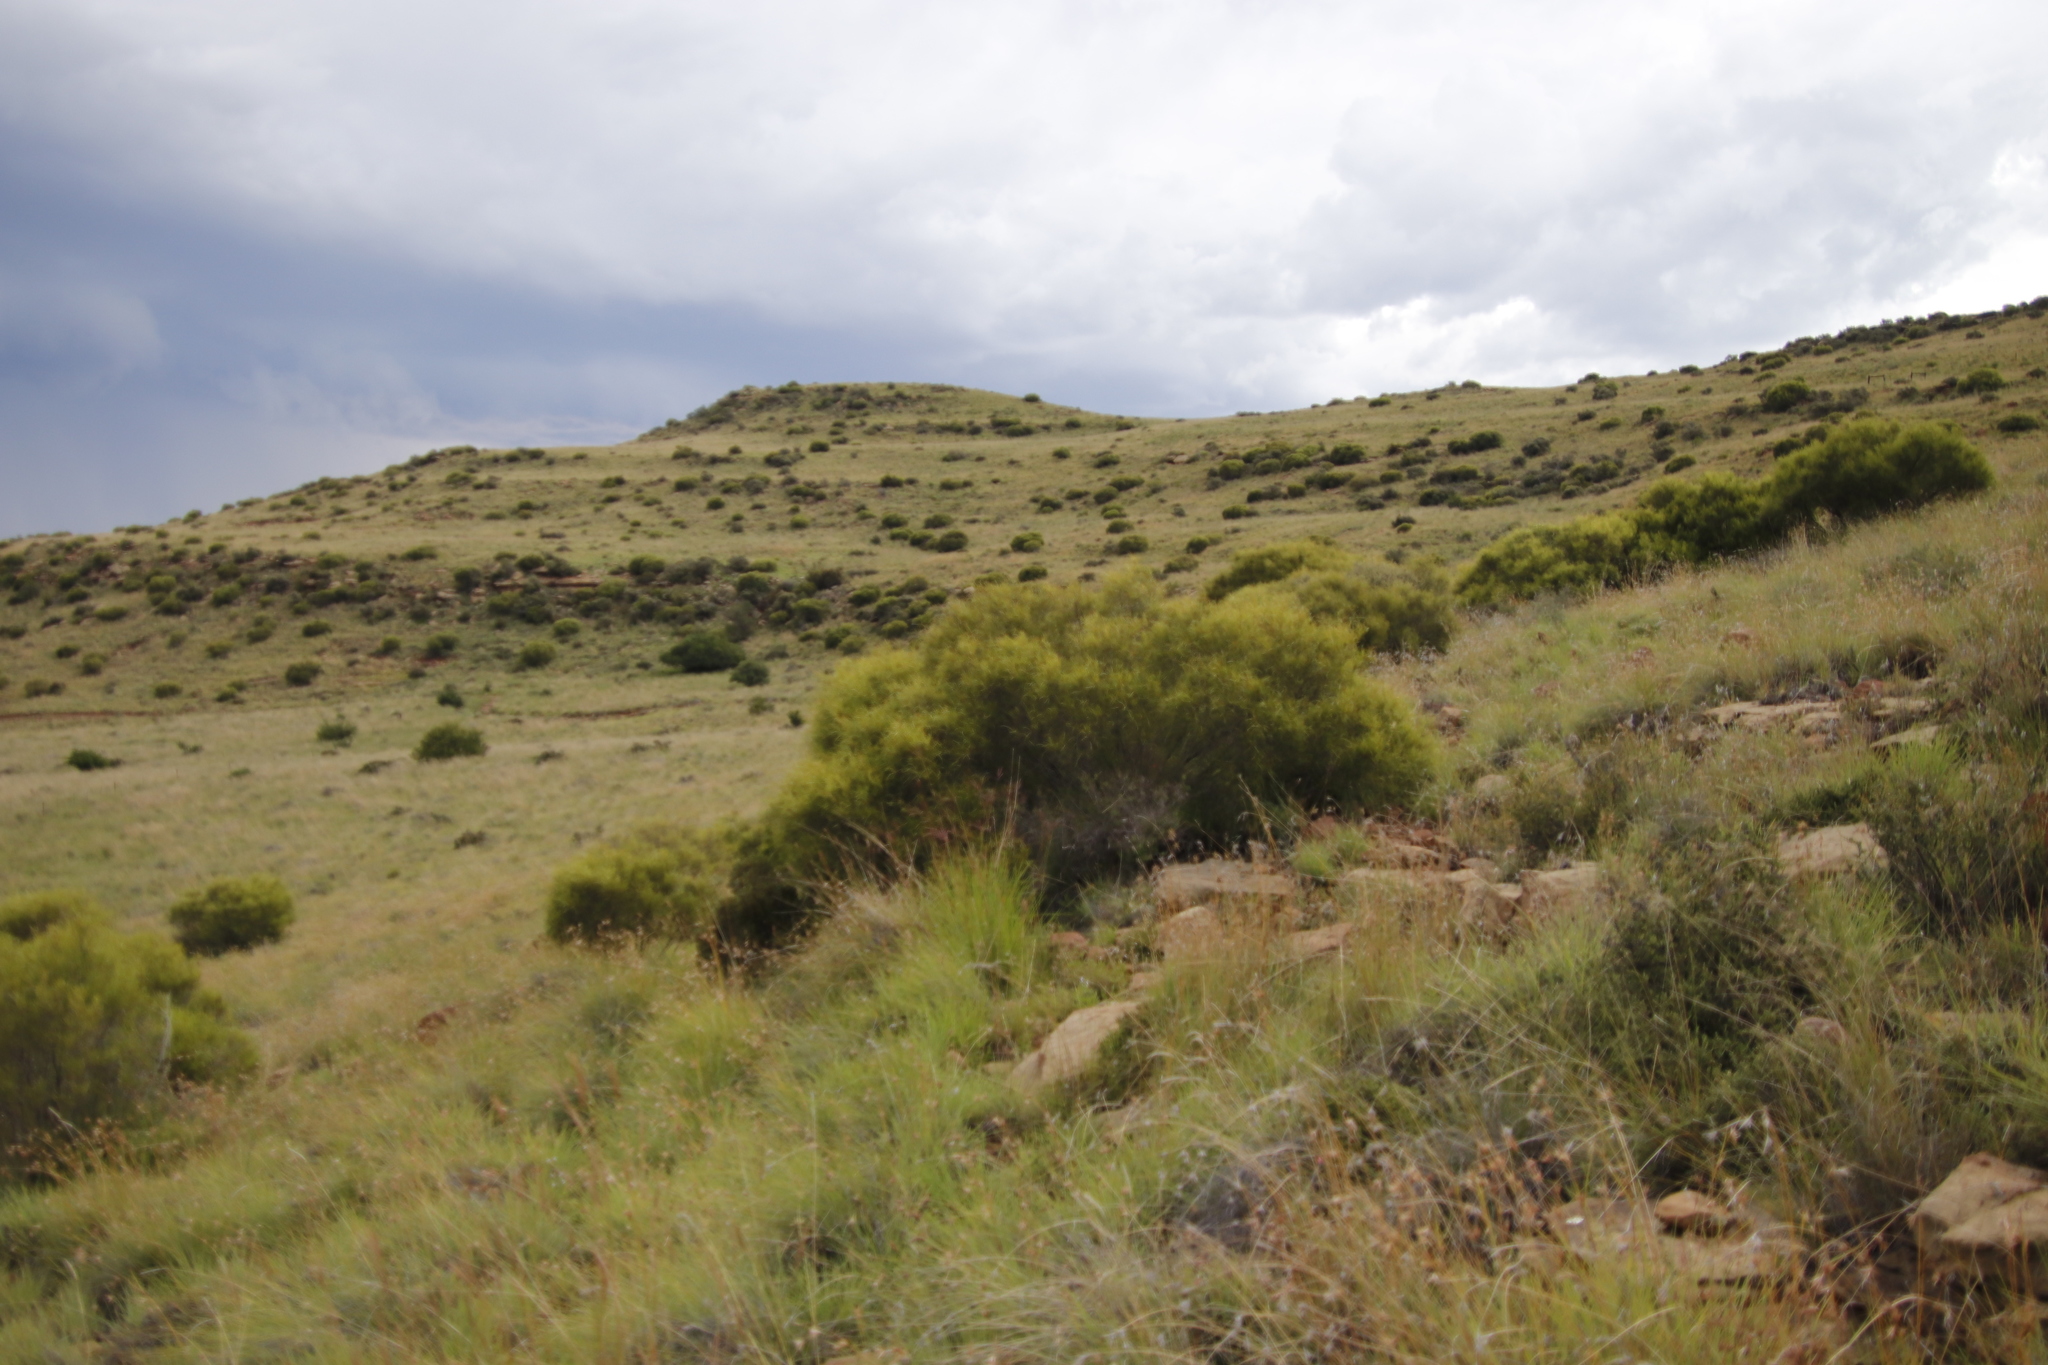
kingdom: Plantae
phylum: Tracheophyta
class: Magnoliopsida
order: Sapindales
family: Anacardiaceae
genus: Searsia
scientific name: Searsia erosa
